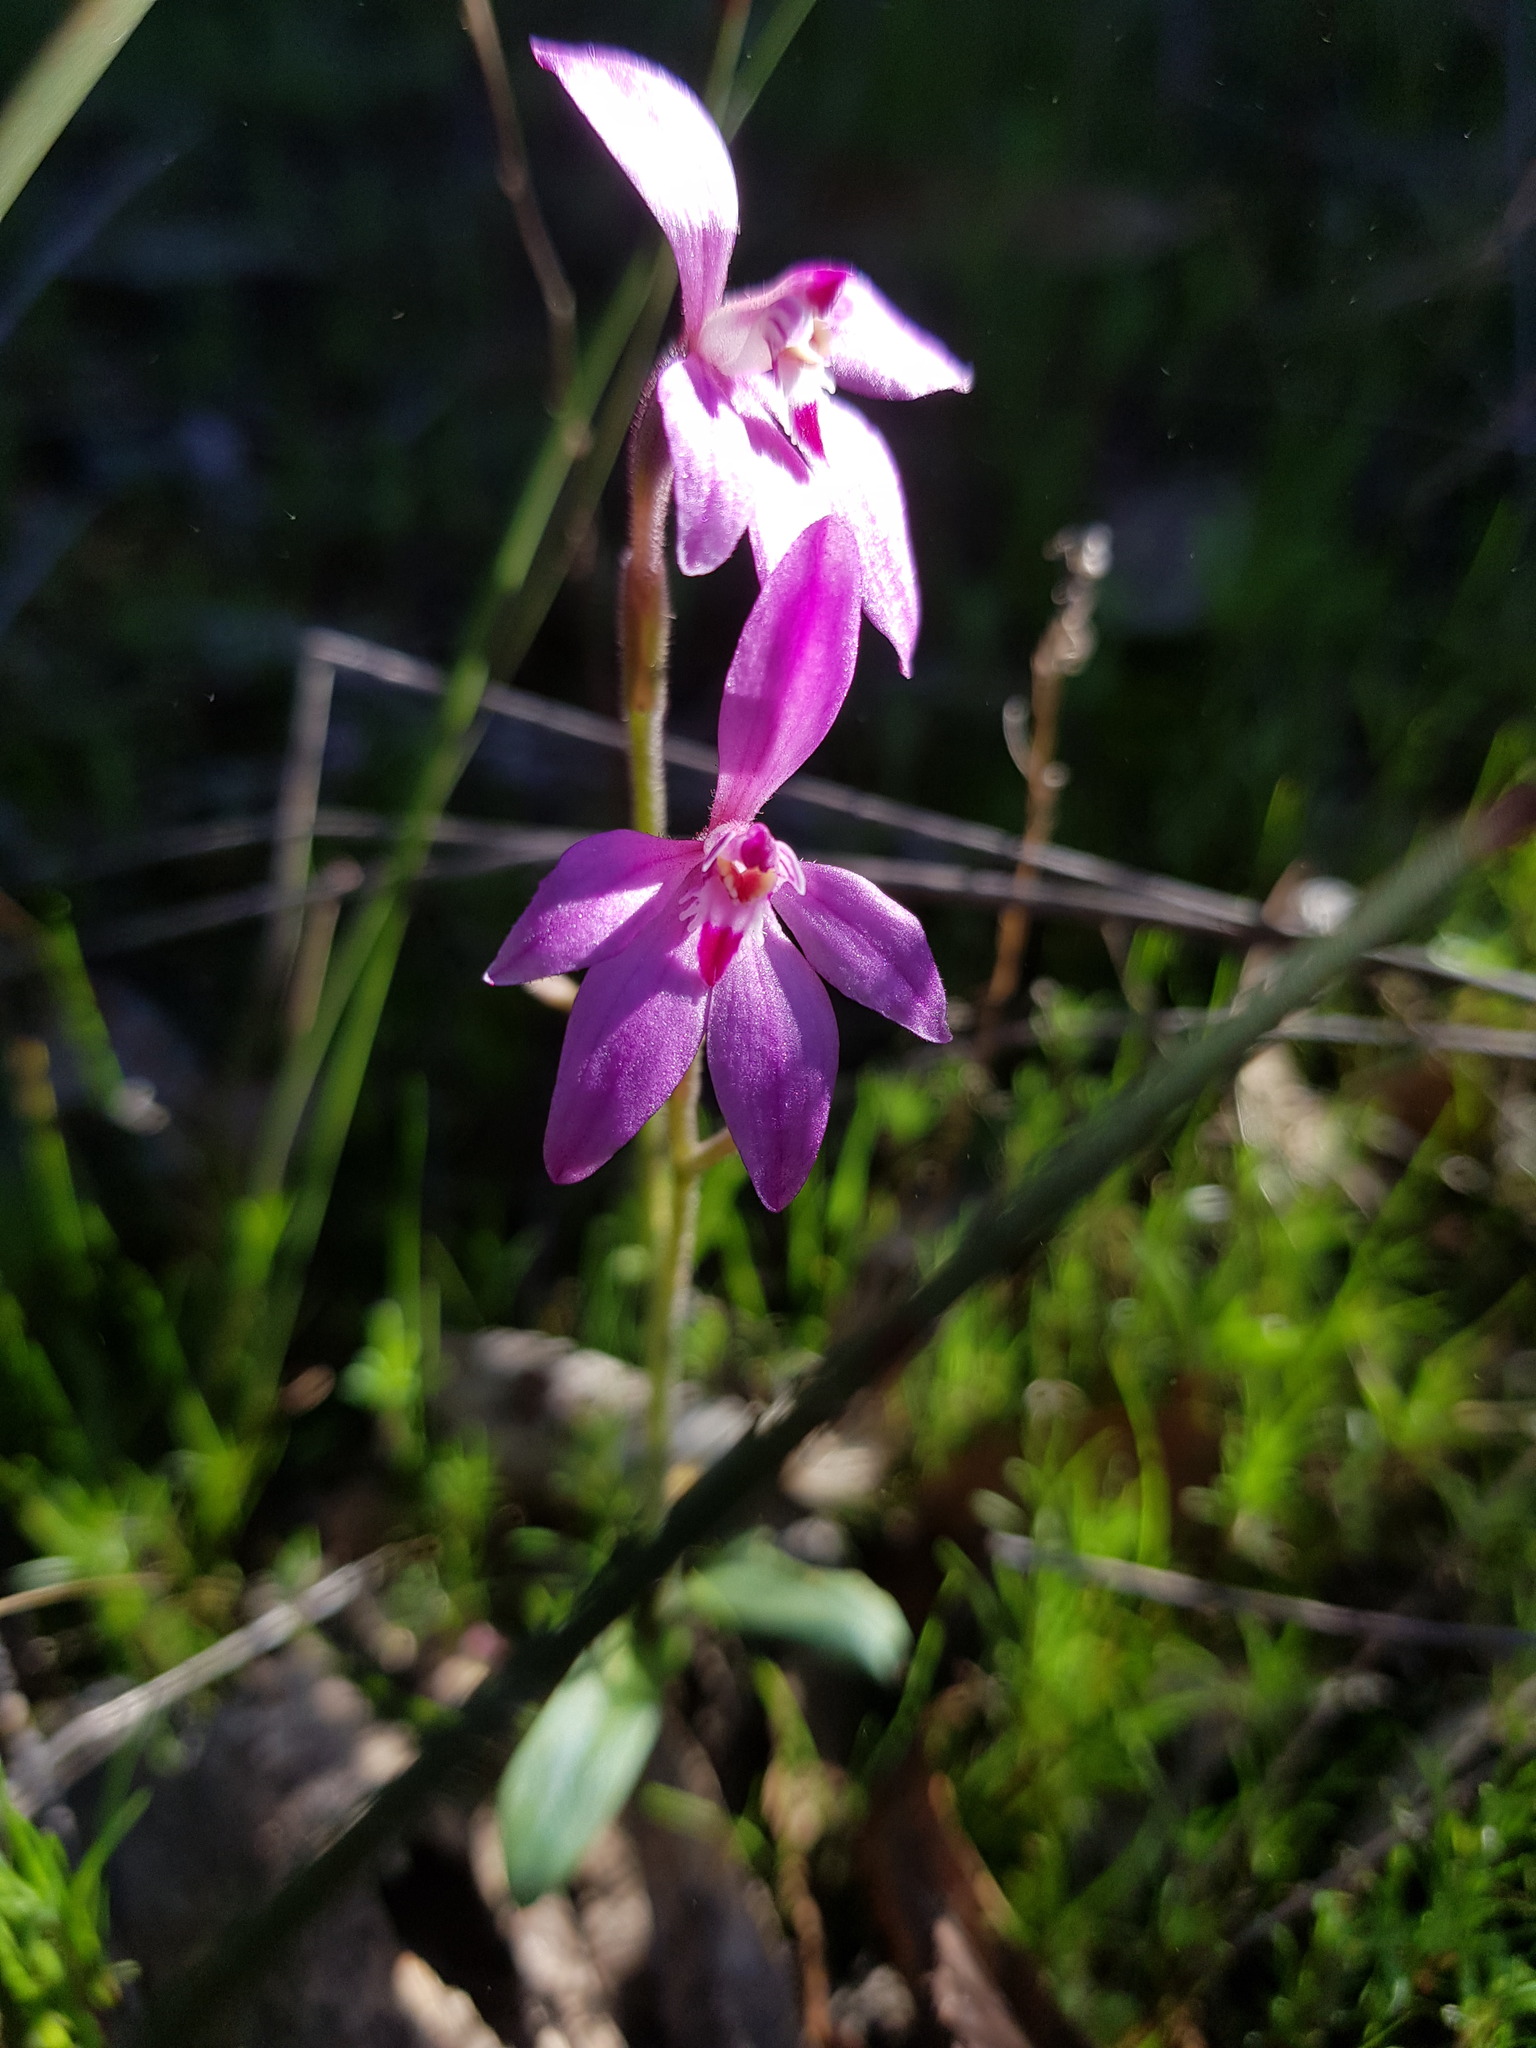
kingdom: Plantae
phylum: Tracheophyta
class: Liliopsida
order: Asparagales
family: Orchidaceae
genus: Caladenia
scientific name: Caladenia reptans
